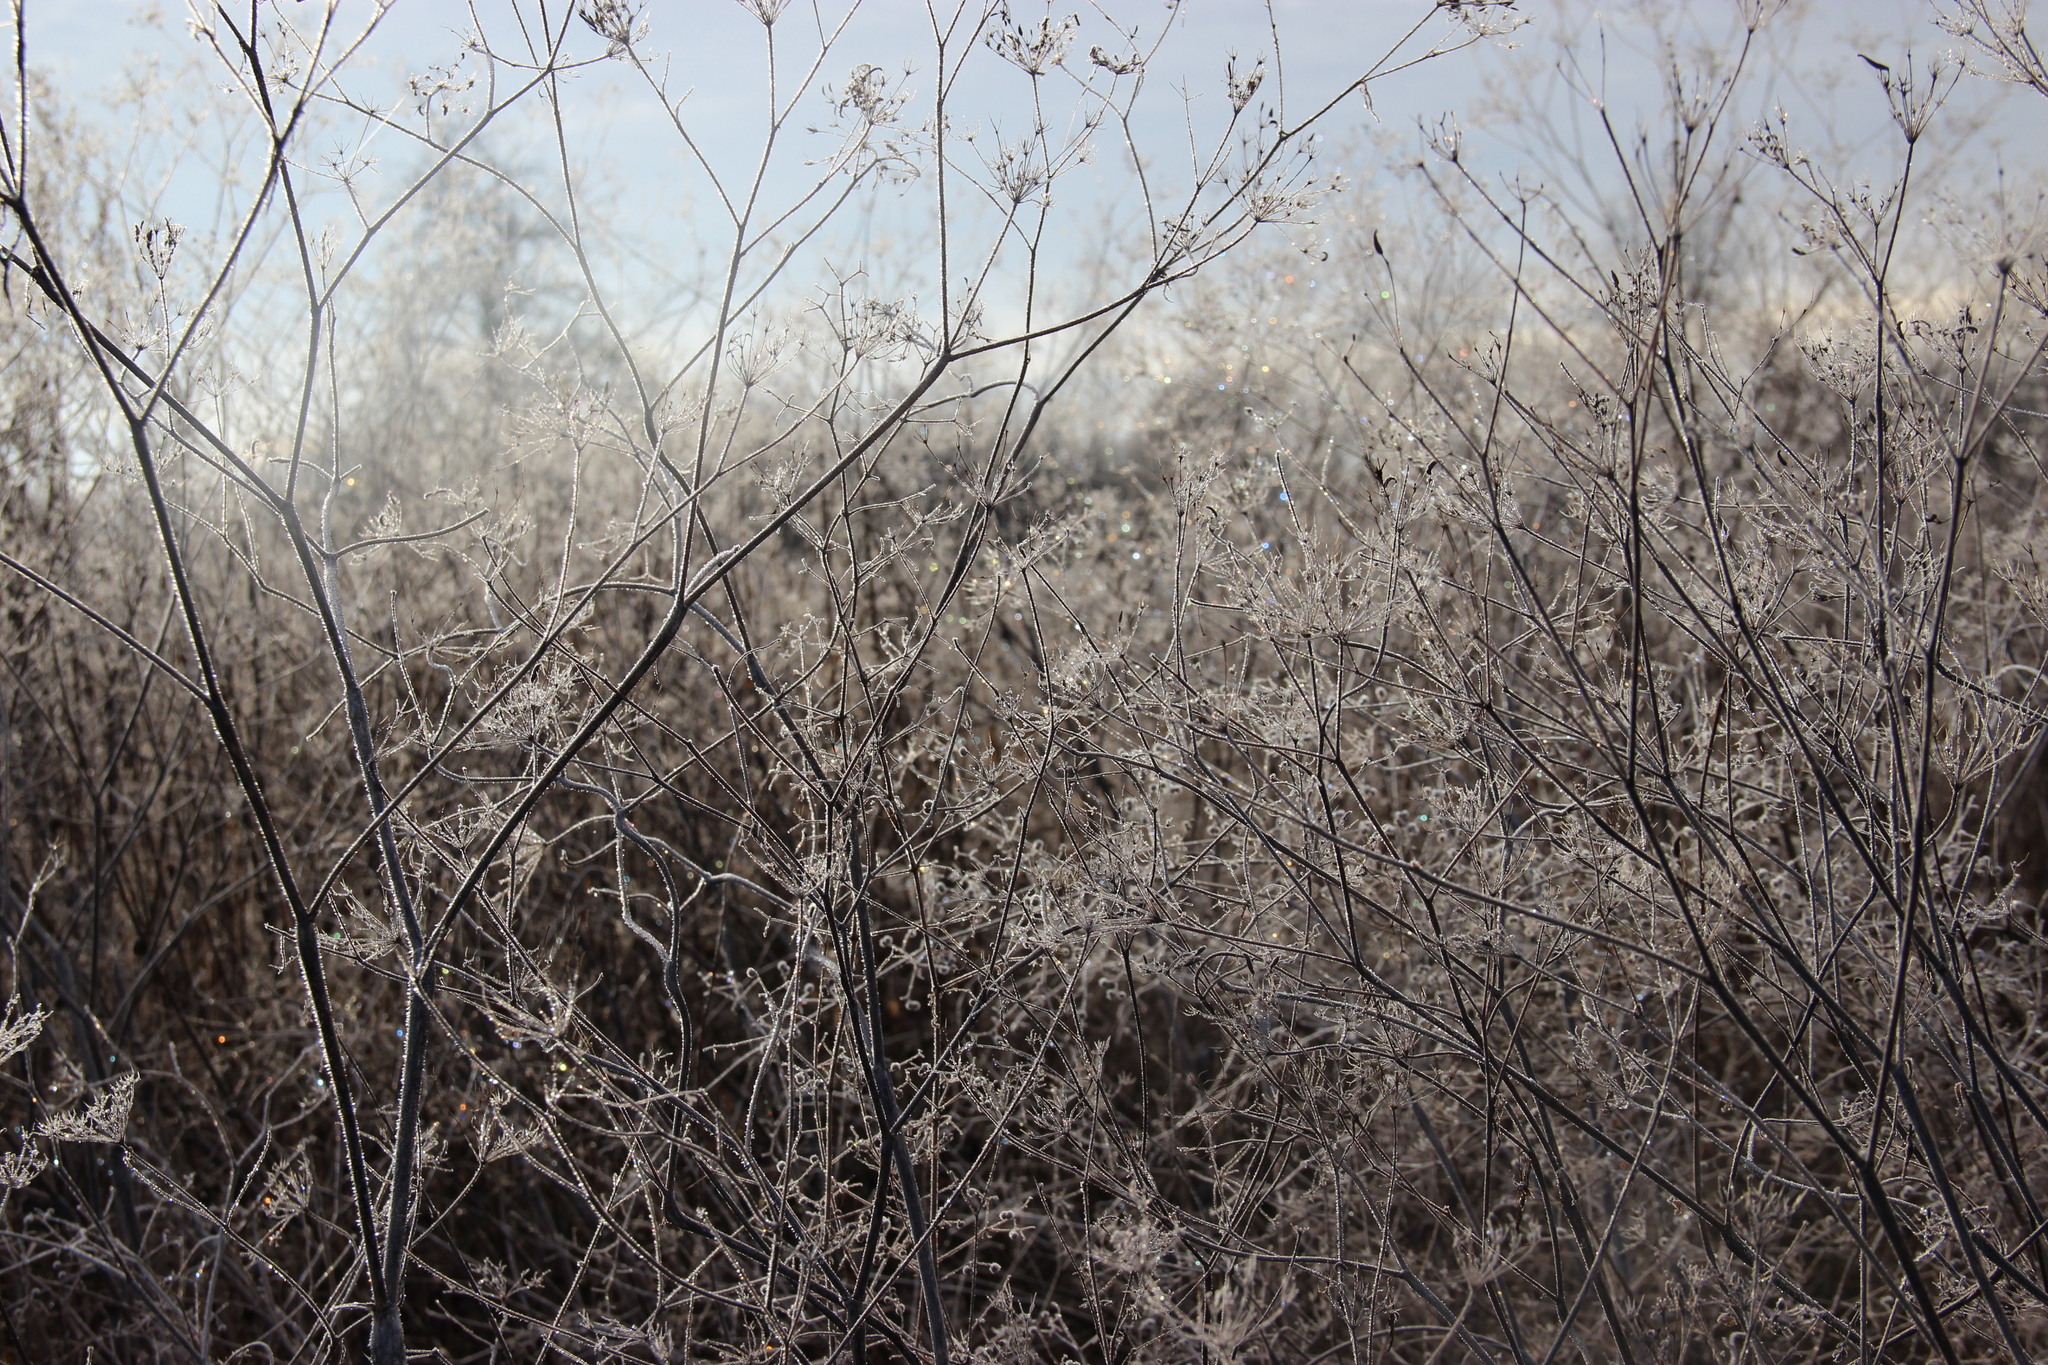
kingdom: Plantae
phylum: Tracheophyta
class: Magnoliopsida
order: Apiales
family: Apiaceae
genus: Anthriscus
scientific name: Anthriscus sylvestris
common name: Cow parsley
